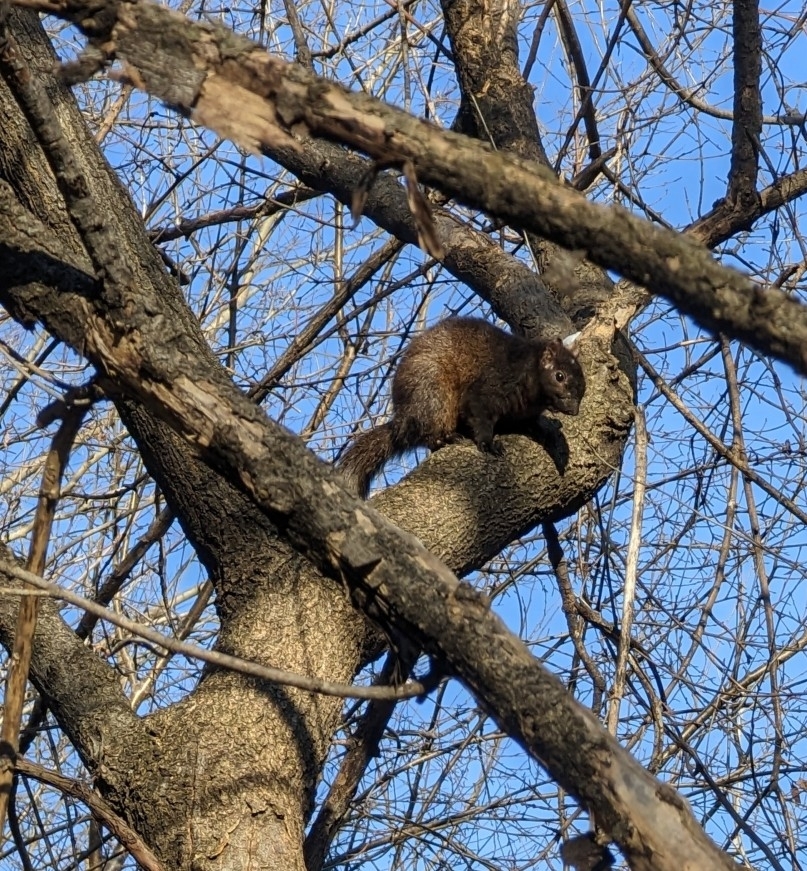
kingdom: Animalia
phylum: Chordata
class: Mammalia
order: Rodentia
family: Sciuridae
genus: Sciurus
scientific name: Sciurus carolinensis
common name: Eastern gray squirrel
